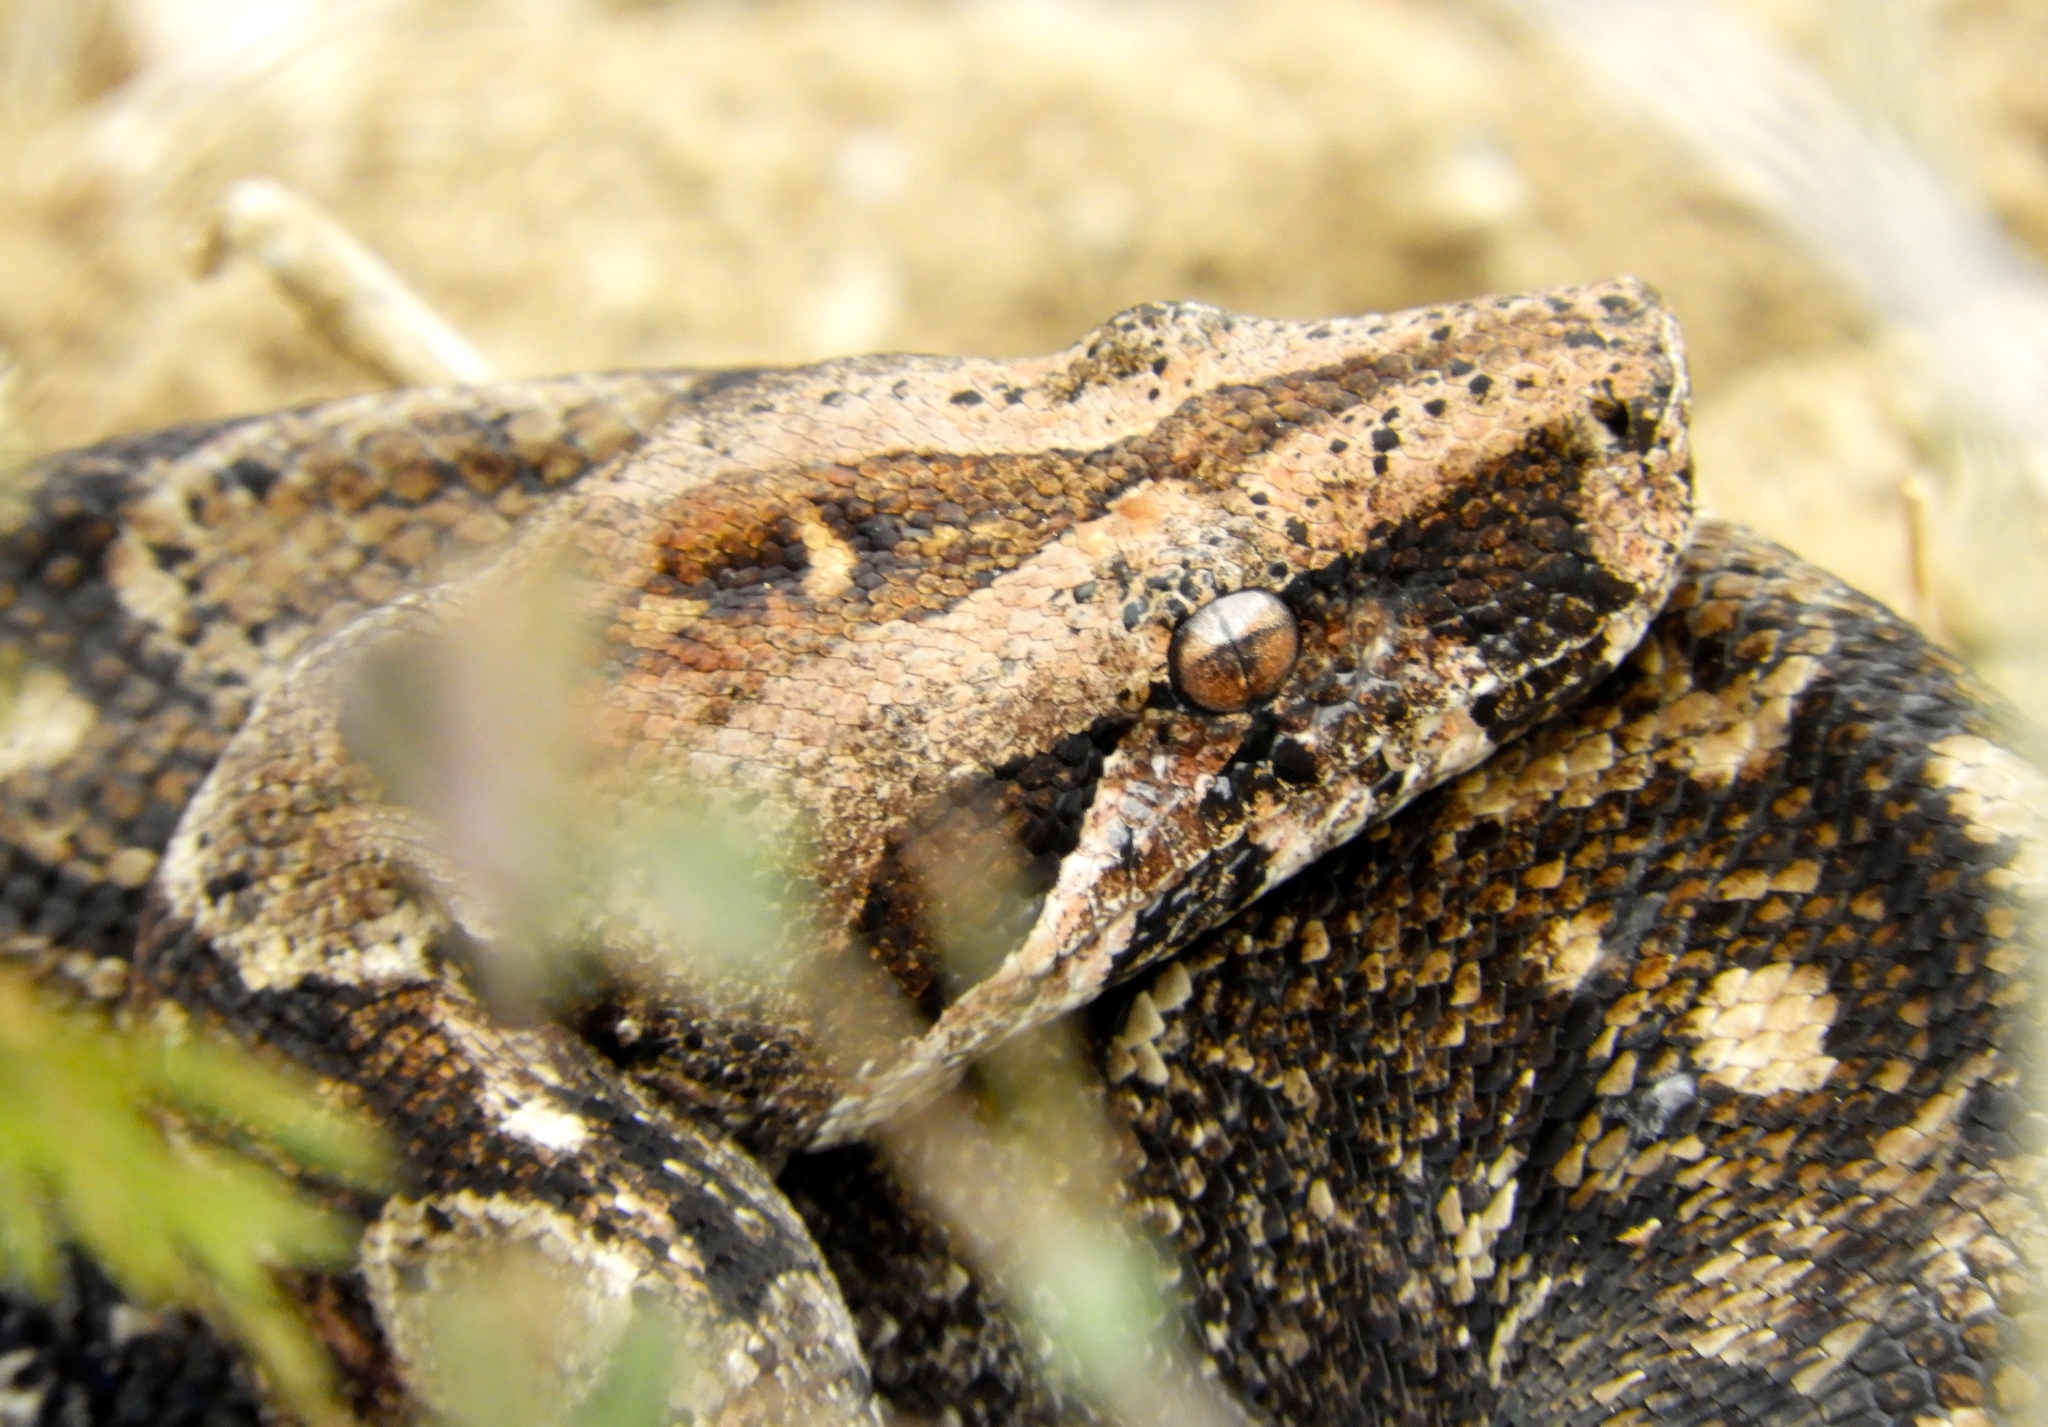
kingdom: Animalia
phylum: Chordata
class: Squamata
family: Boidae
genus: Boa
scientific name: Boa
